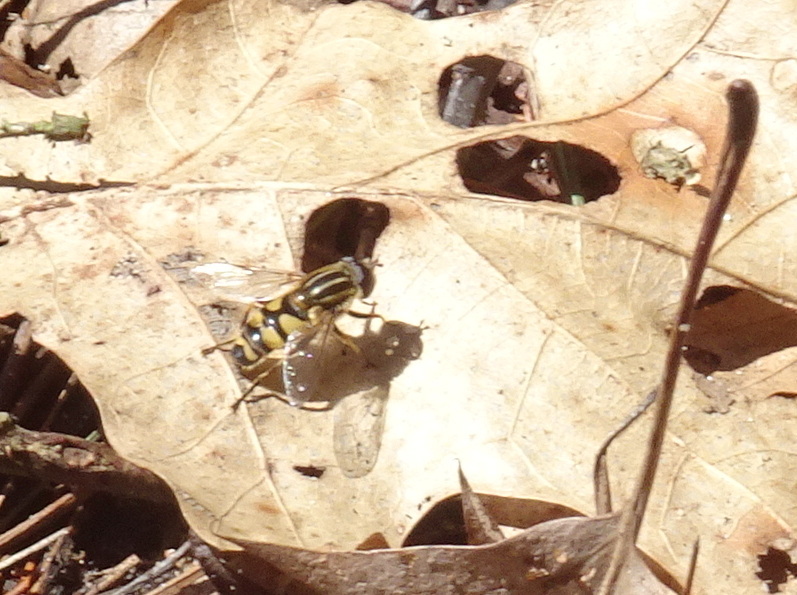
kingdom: Animalia
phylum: Arthropoda
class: Insecta
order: Diptera
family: Syrphidae
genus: Helophilus
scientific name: Helophilus fasciatus
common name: Narrow-headed marsh fly
